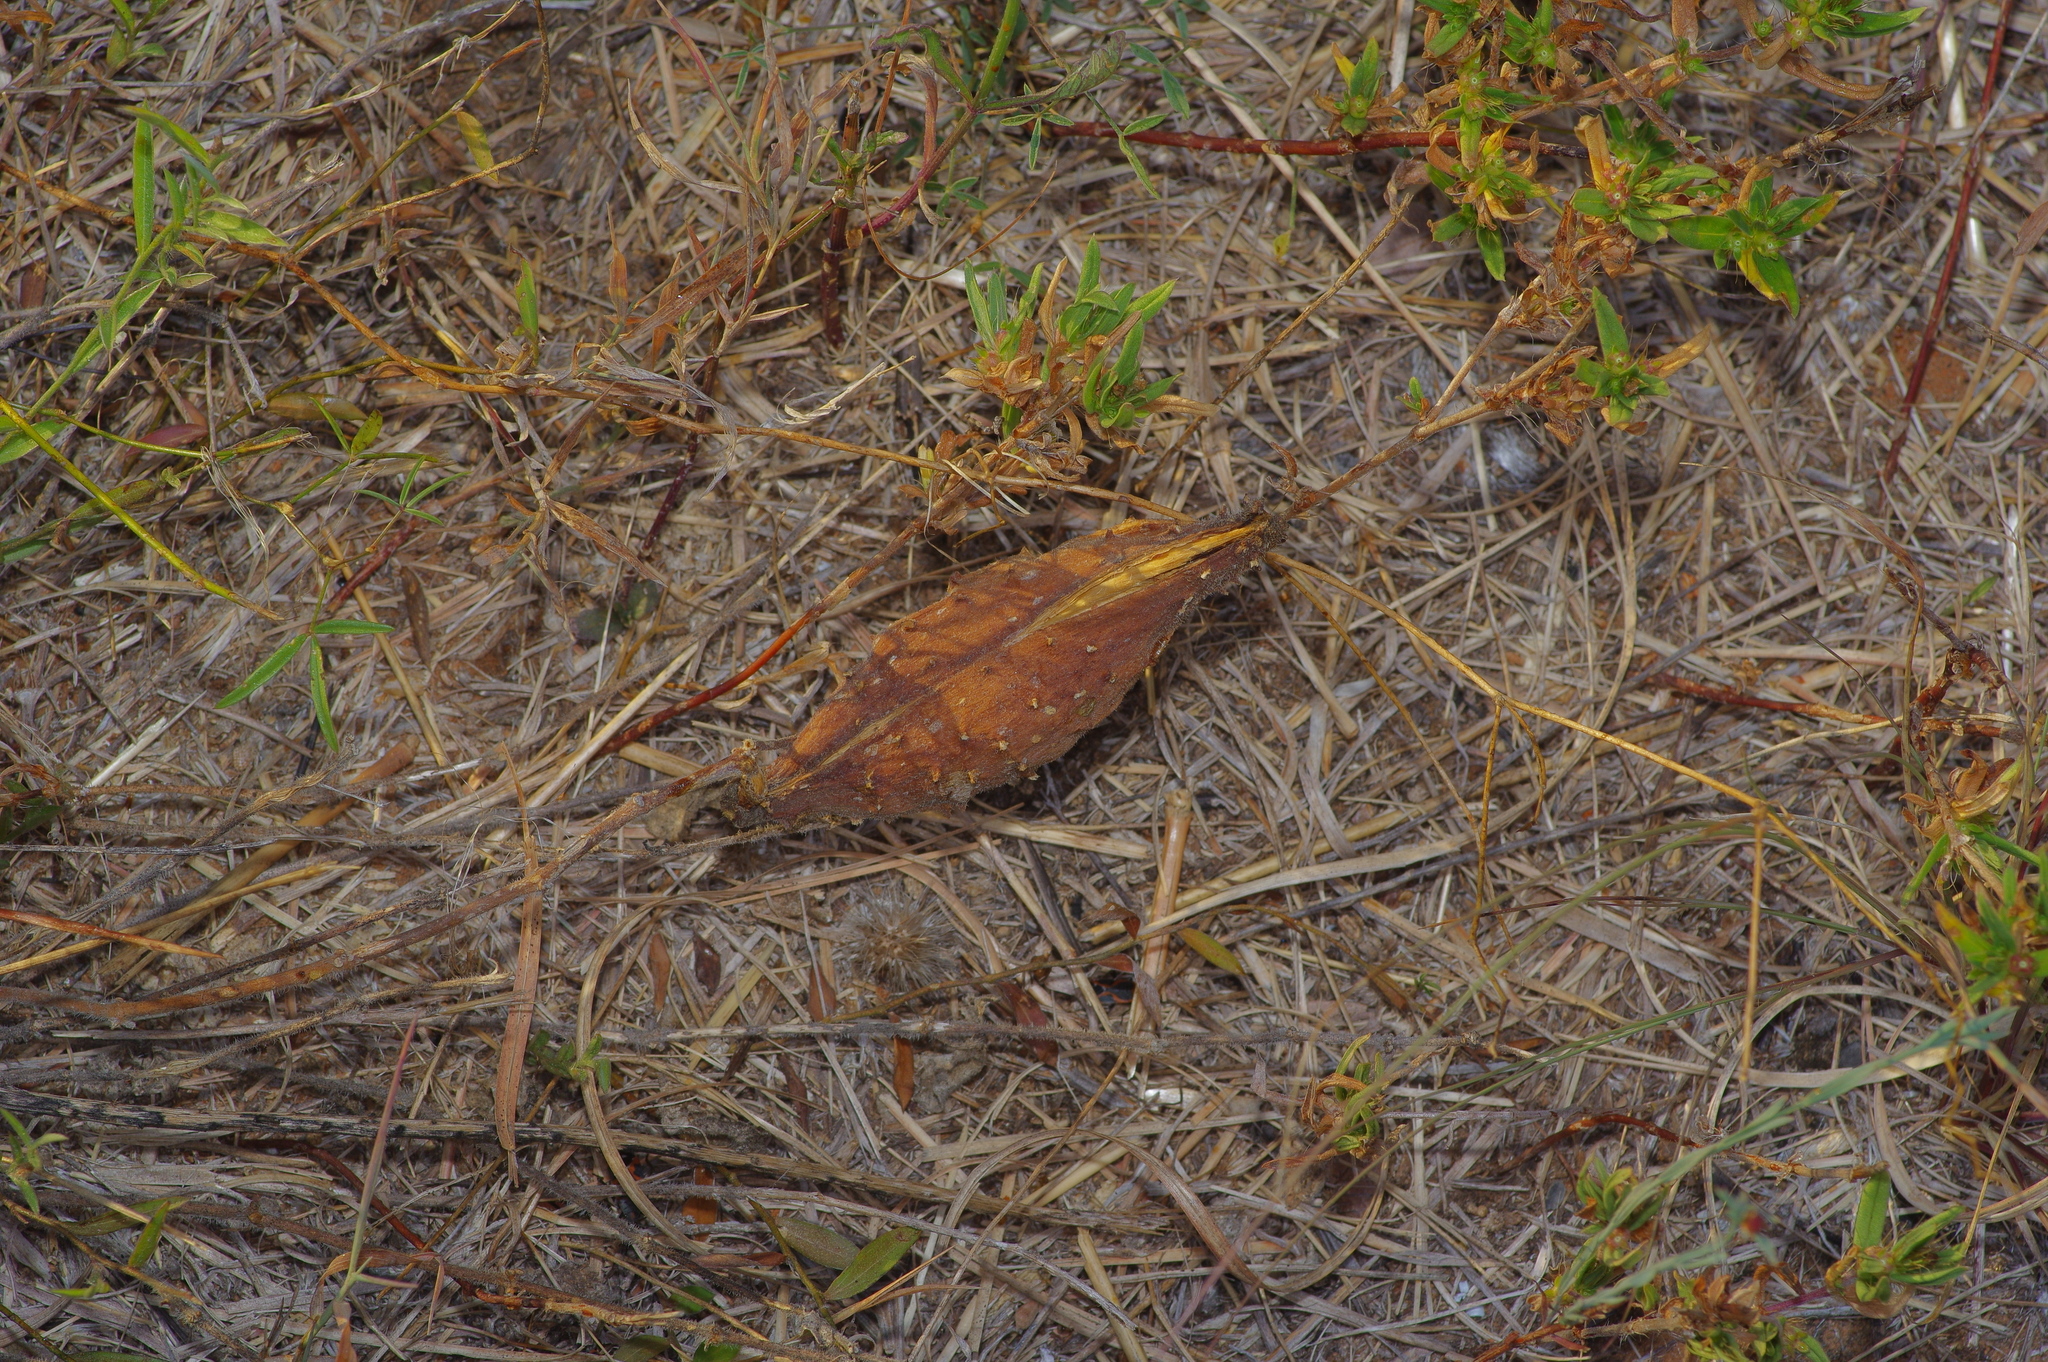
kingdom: Plantae
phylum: Tracheophyta
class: Magnoliopsida
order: Gentianales
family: Apocynaceae
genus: Matelea
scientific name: Matelea cynanchoides
